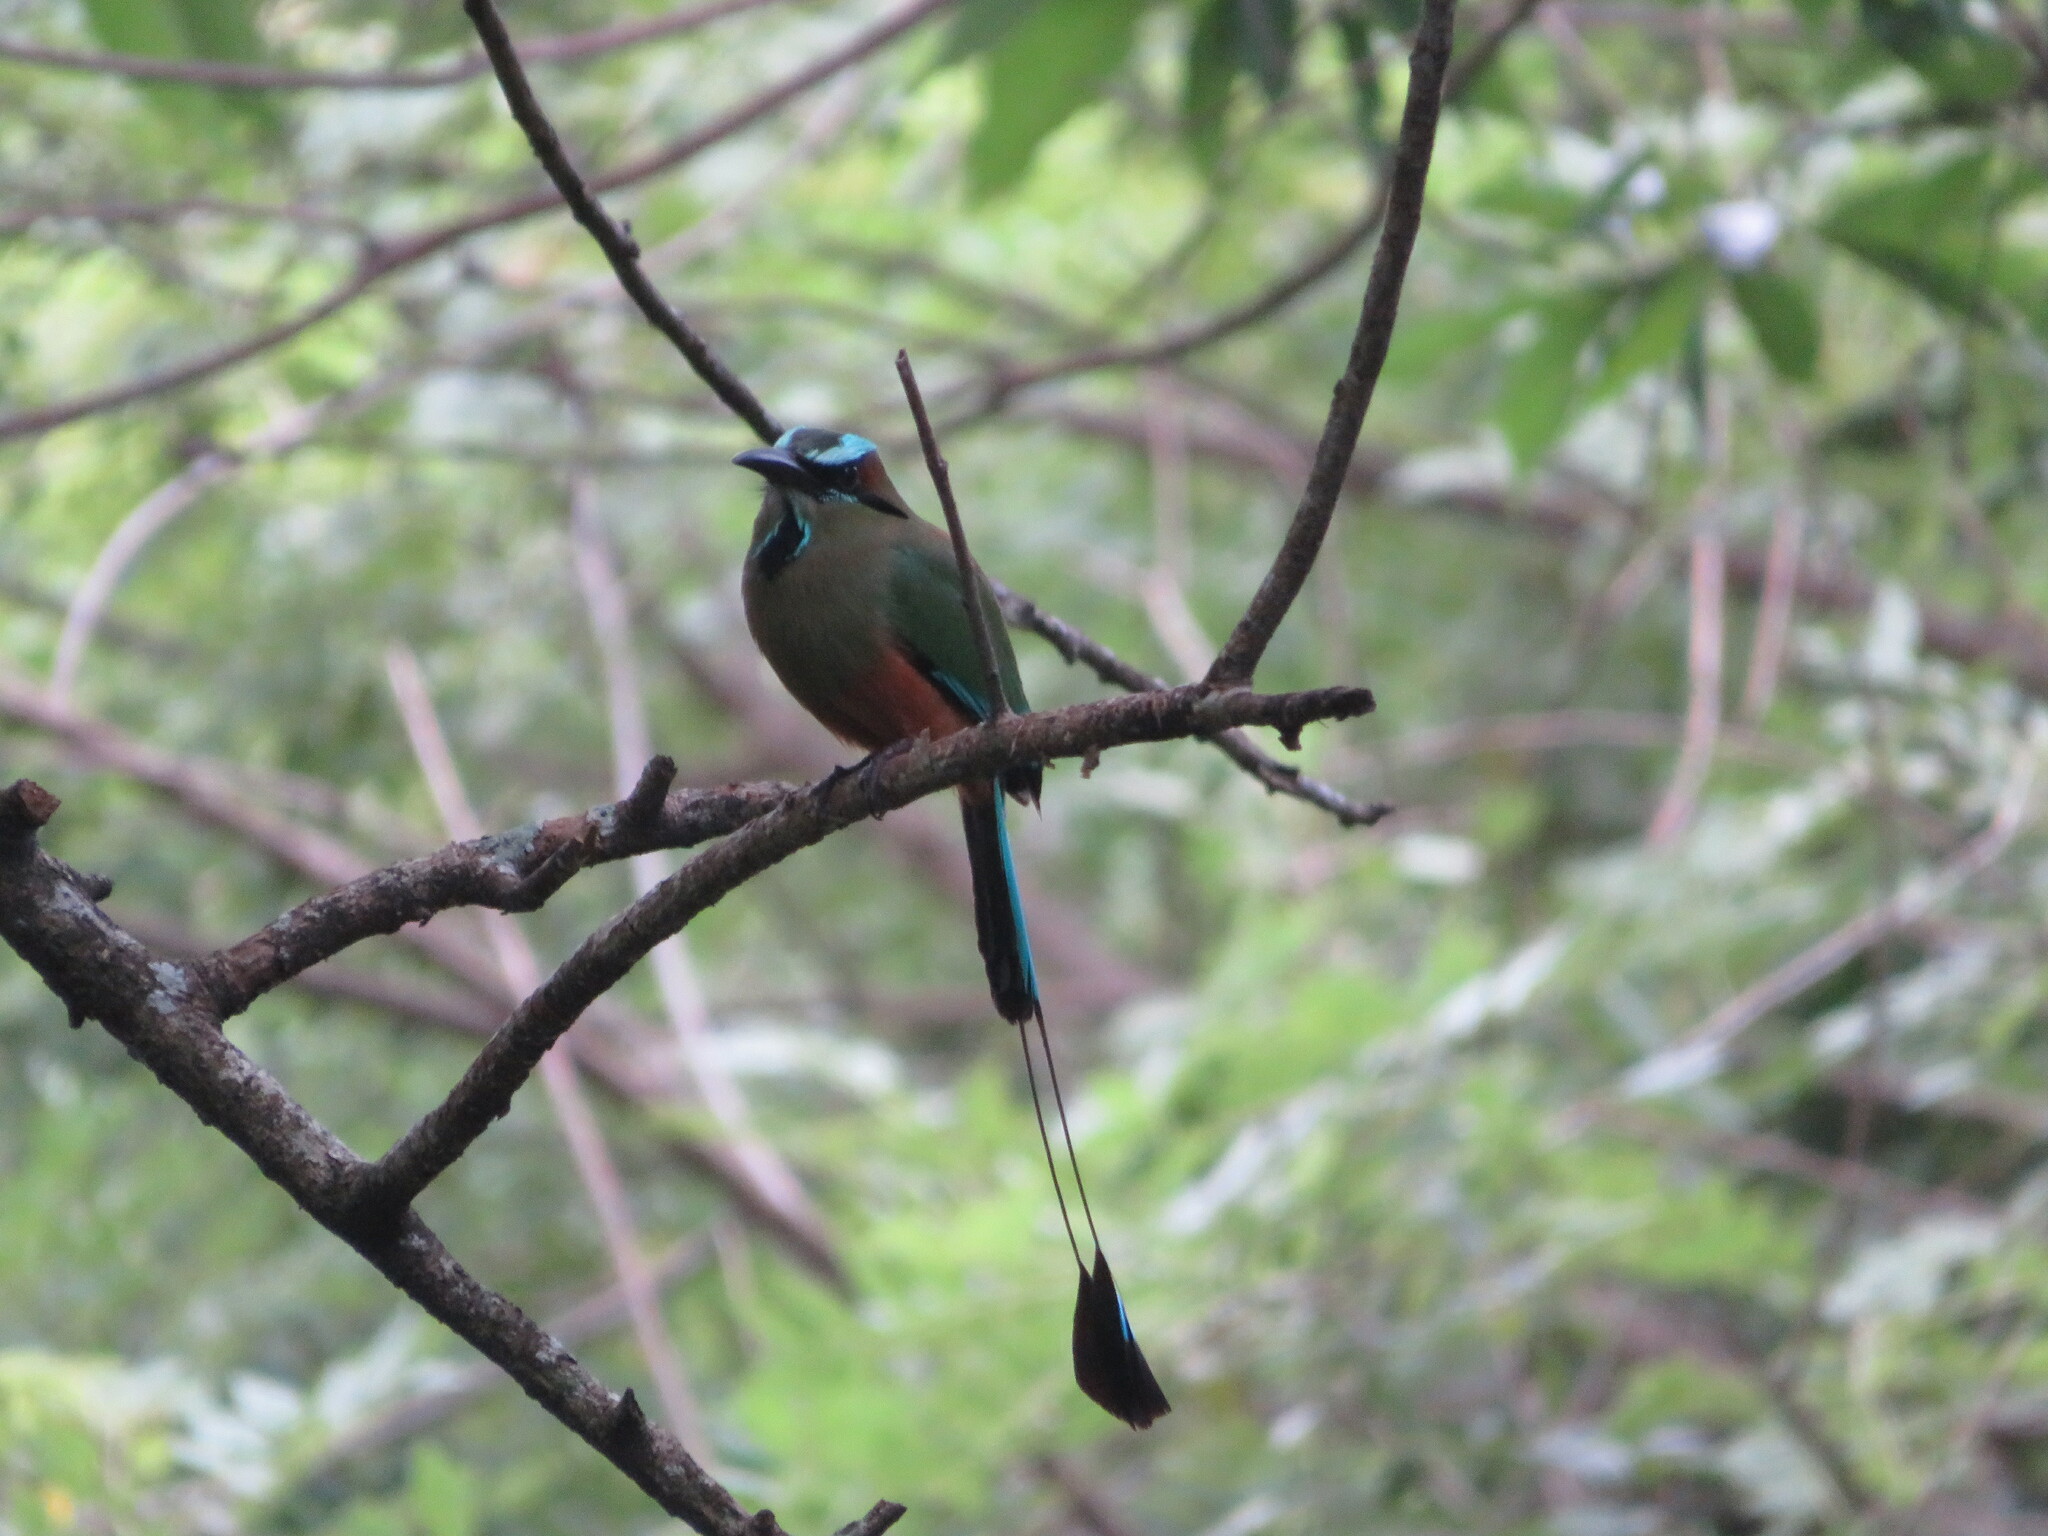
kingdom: Animalia
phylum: Chordata
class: Aves
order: Coraciiformes
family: Momotidae
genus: Eumomota
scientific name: Eumomota superciliosa
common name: Turquoise-browed motmot
